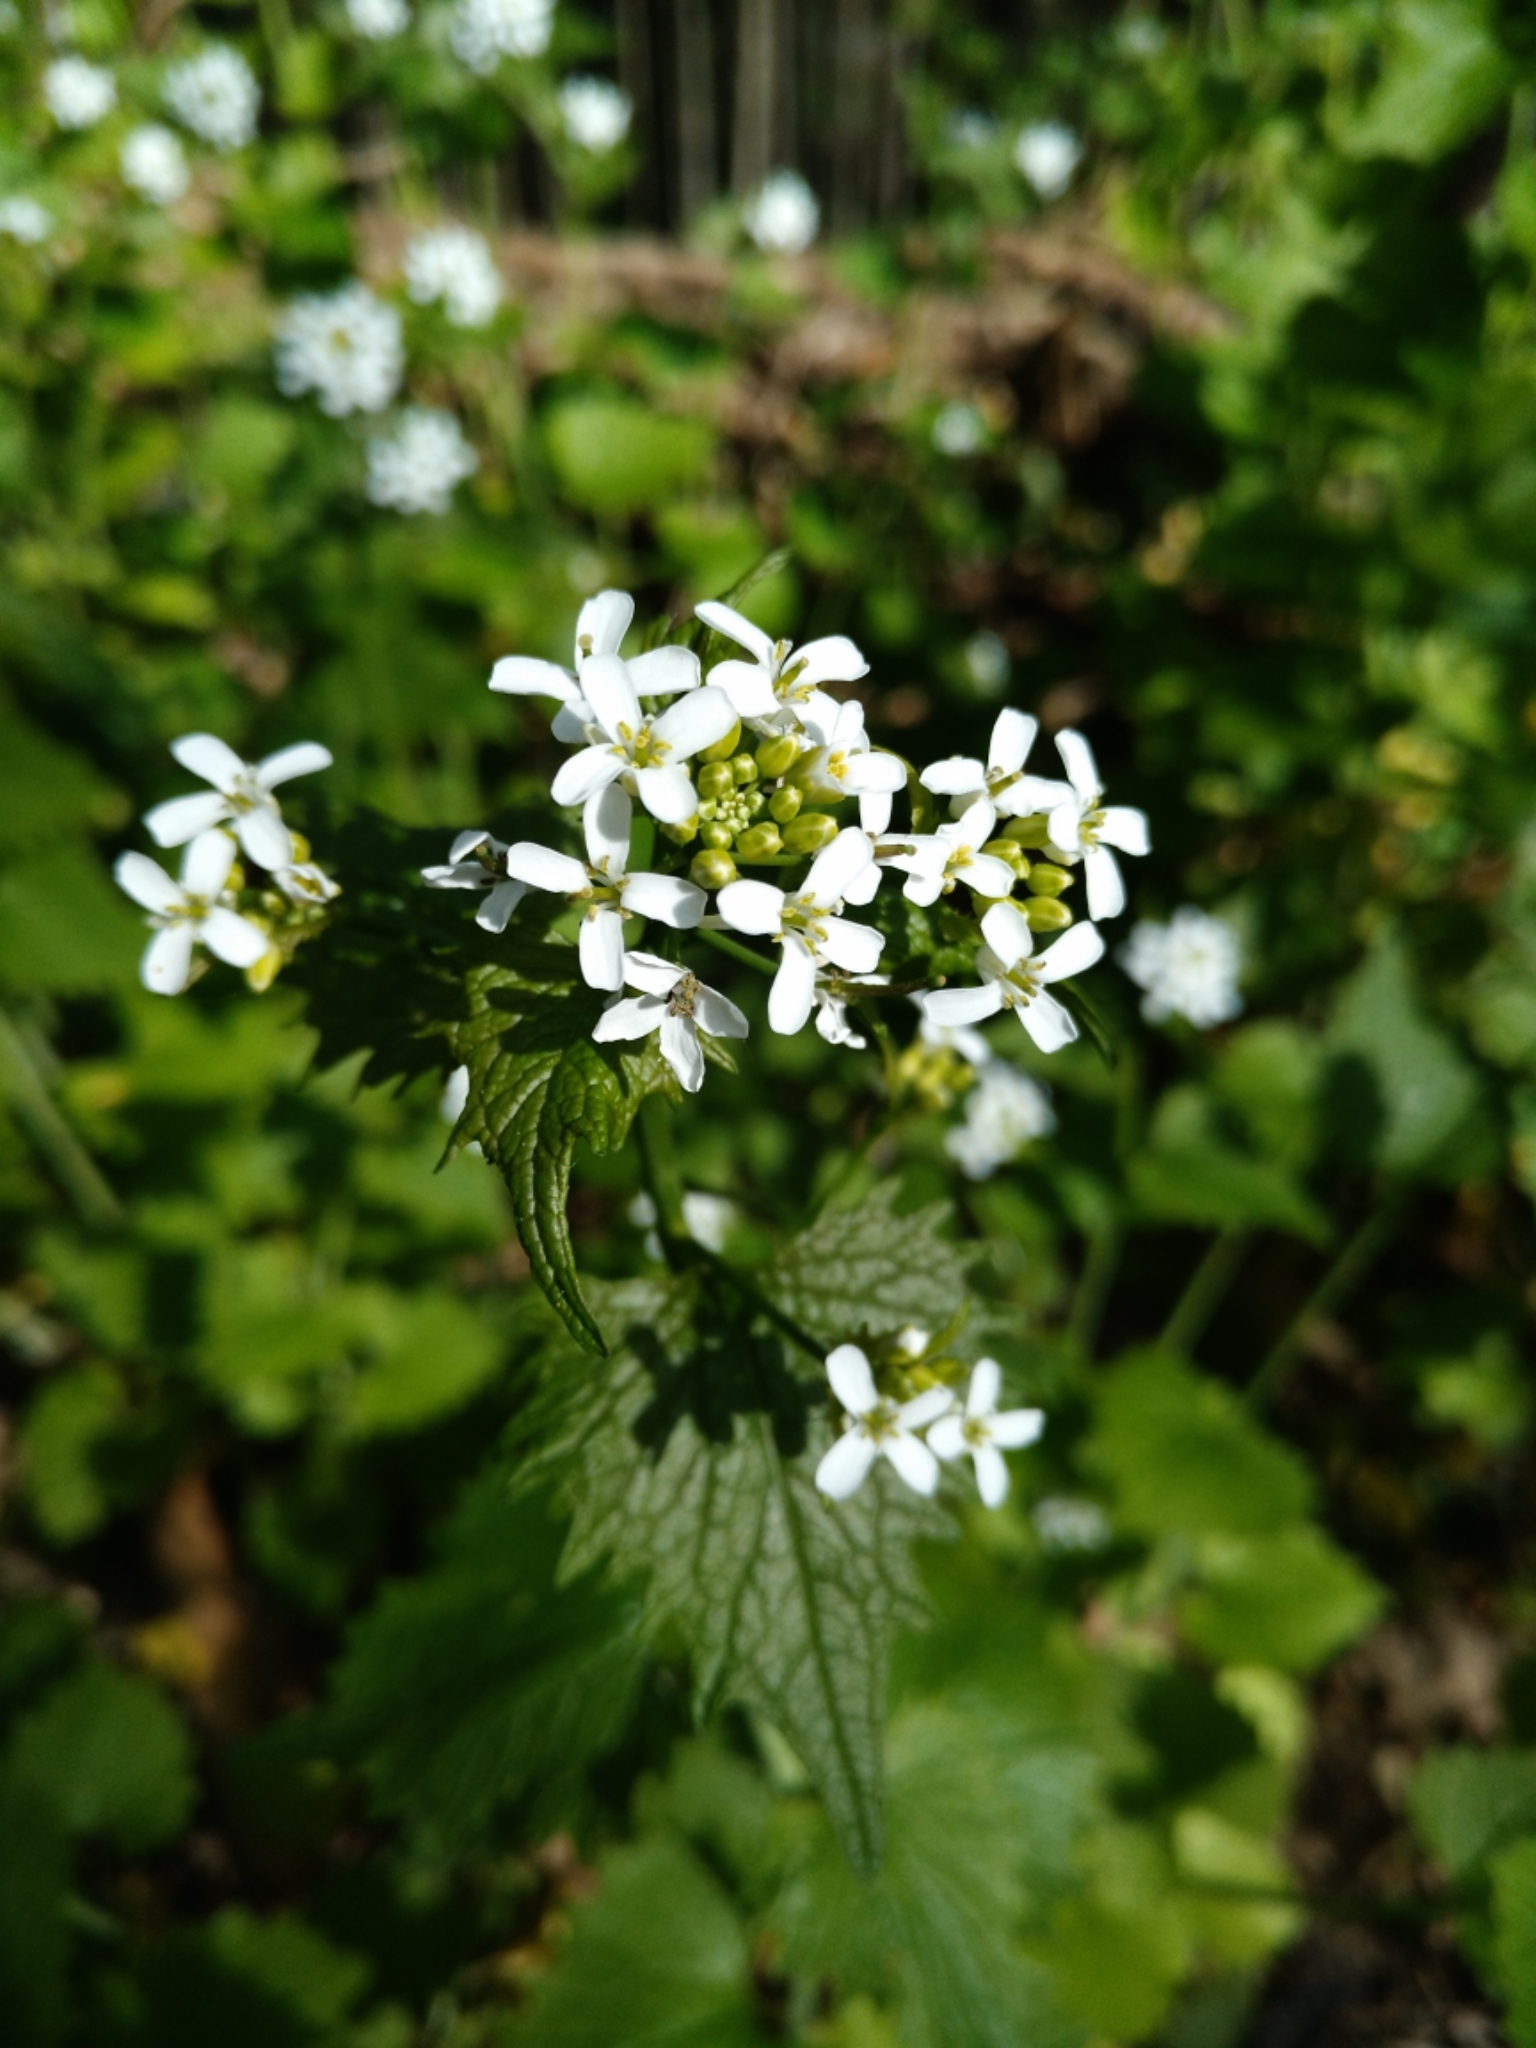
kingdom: Plantae
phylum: Tracheophyta
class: Magnoliopsida
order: Brassicales
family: Brassicaceae
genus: Alliaria
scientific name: Alliaria petiolata
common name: Garlic mustard
